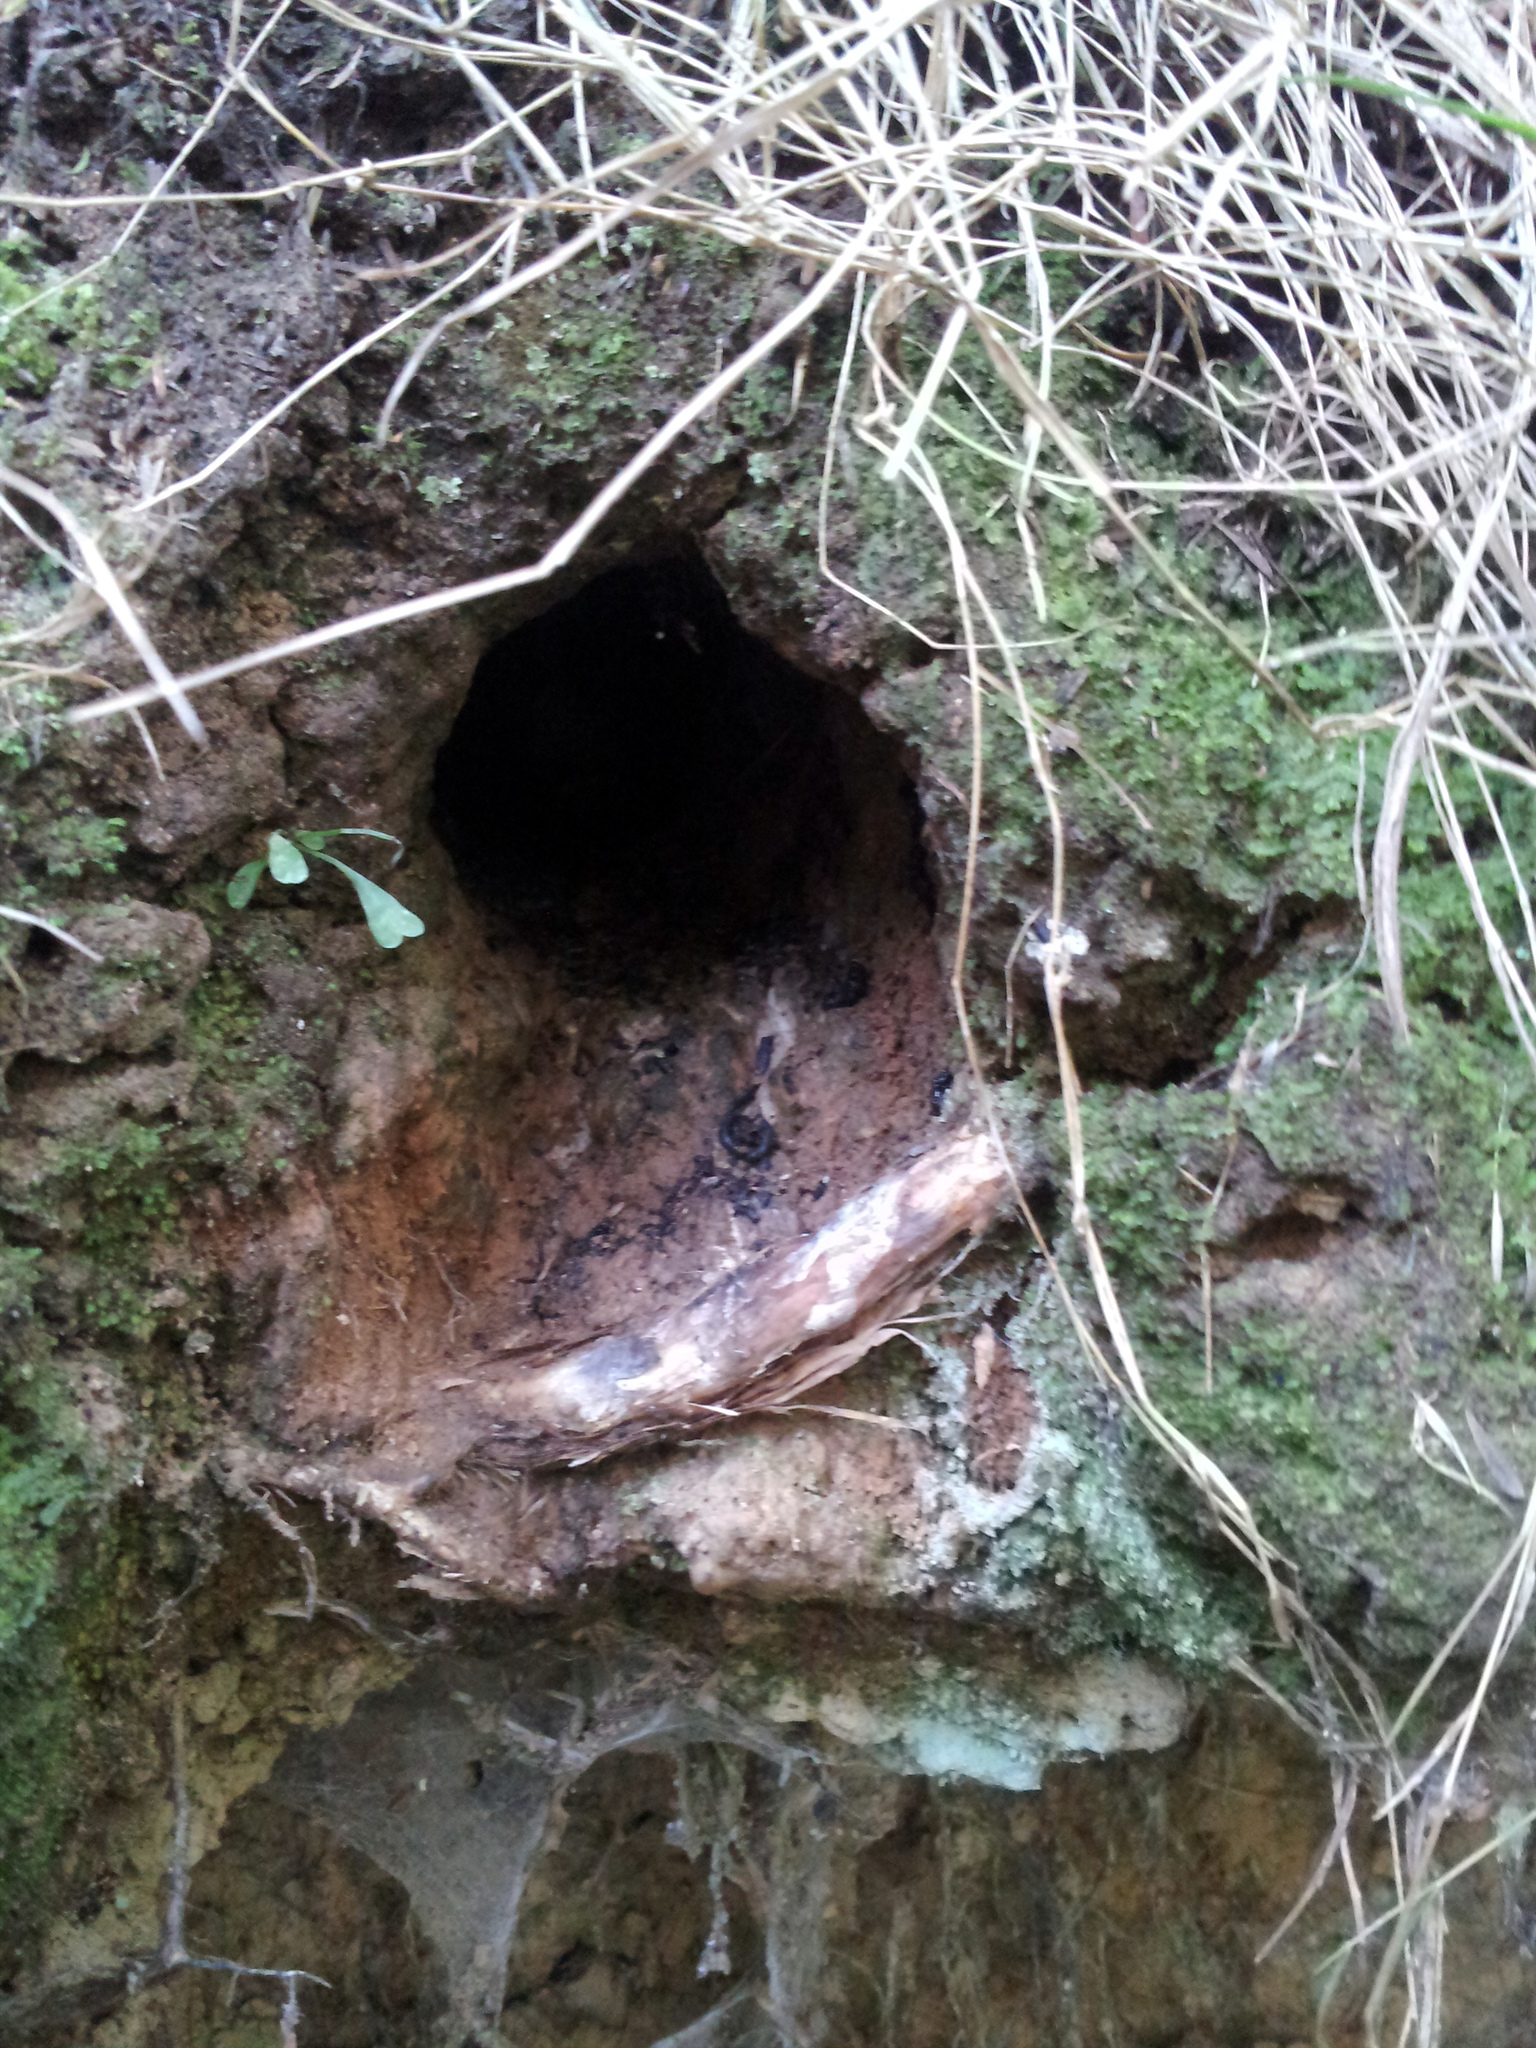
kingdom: Animalia
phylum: Chordata
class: Aves
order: Coraciiformes
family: Alcedinidae
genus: Todiramphus
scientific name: Todiramphus sanctus
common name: Sacred kingfisher
